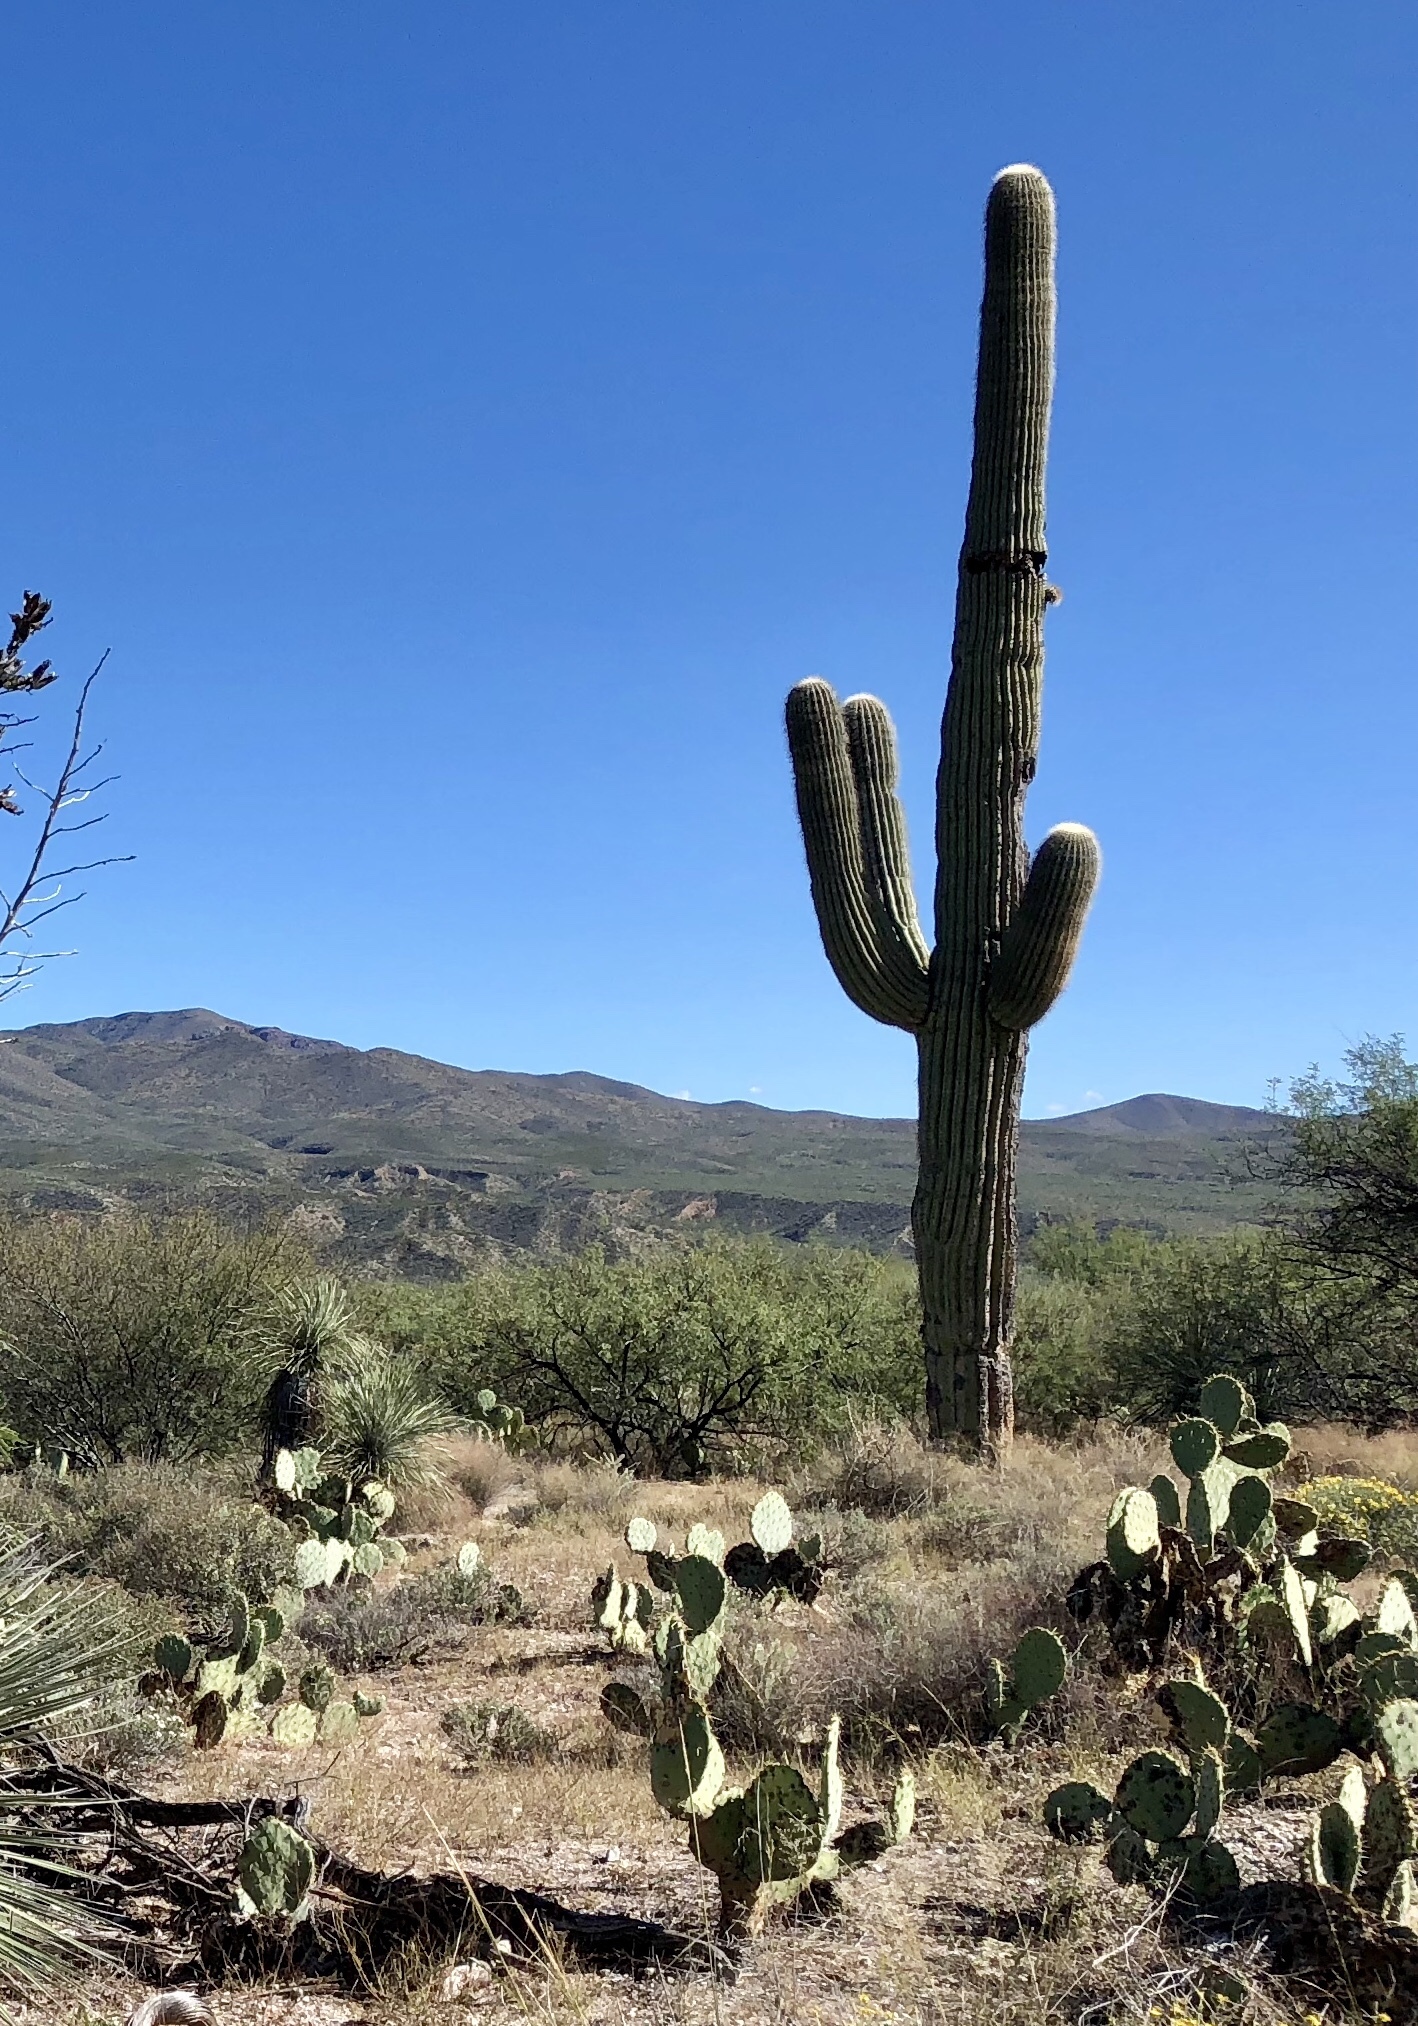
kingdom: Plantae
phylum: Tracheophyta
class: Magnoliopsida
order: Caryophyllales
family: Cactaceae
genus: Carnegiea
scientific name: Carnegiea gigantea
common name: Saguaro
